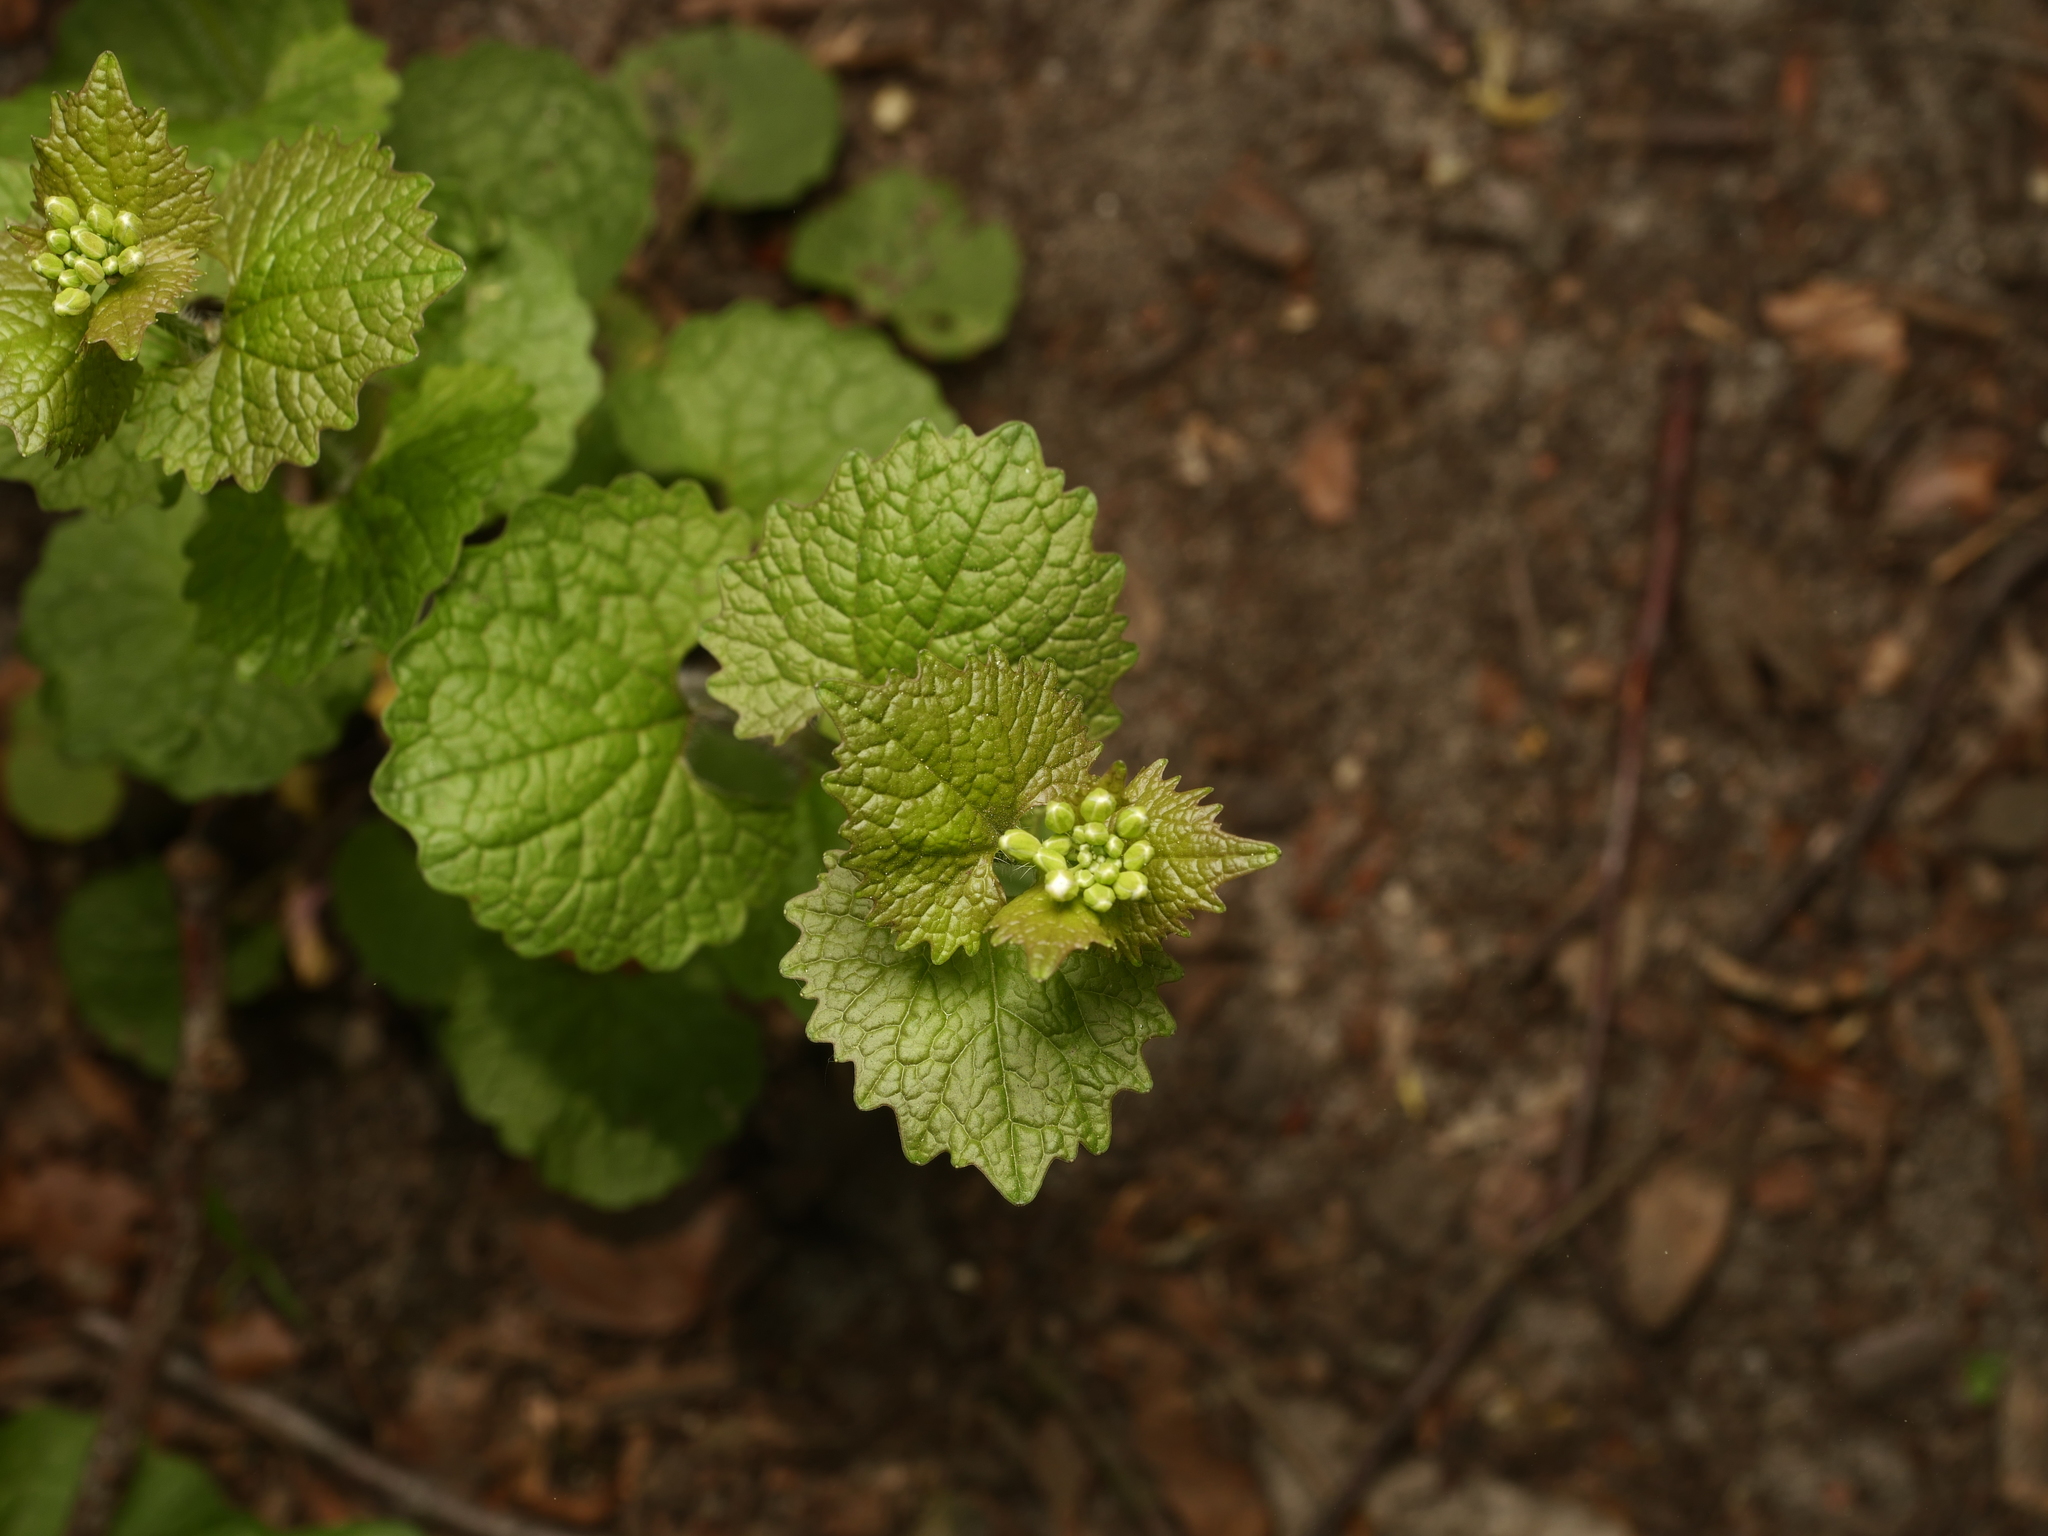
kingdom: Plantae
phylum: Tracheophyta
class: Magnoliopsida
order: Brassicales
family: Brassicaceae
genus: Alliaria
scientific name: Alliaria petiolata
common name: Garlic mustard
